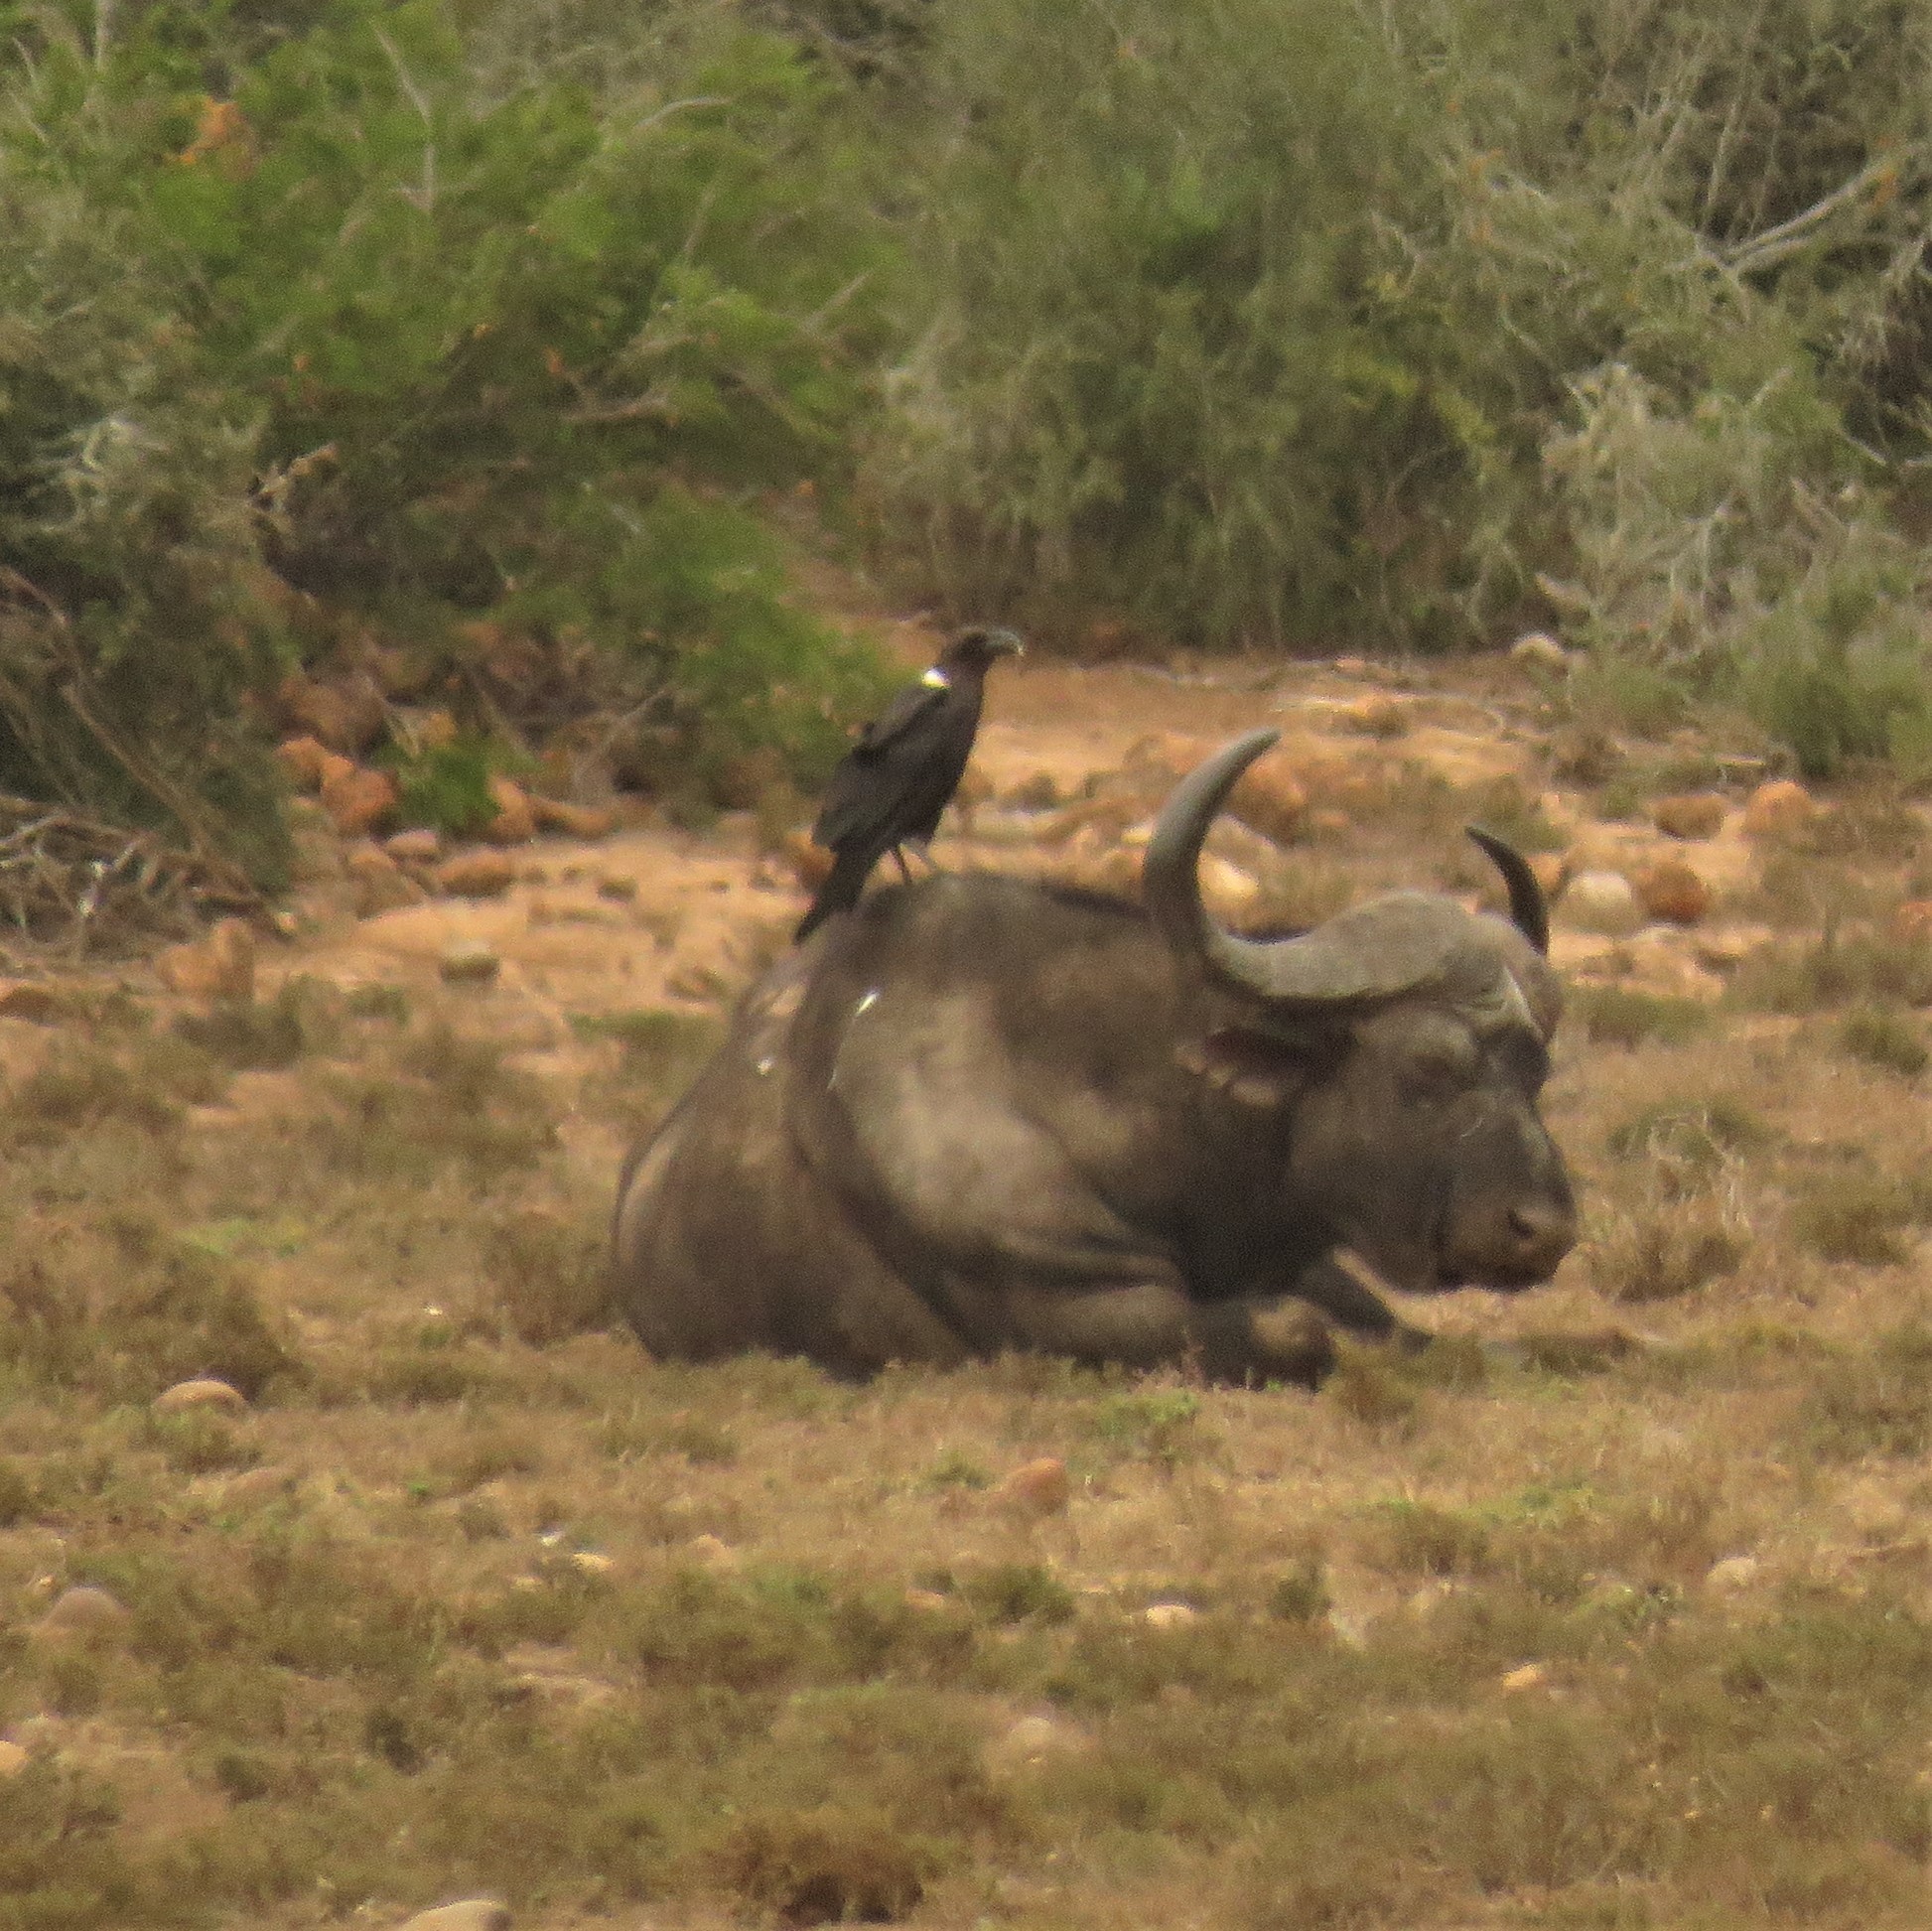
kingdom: Animalia
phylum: Chordata
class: Aves
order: Passeriformes
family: Corvidae
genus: Corvus
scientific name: Corvus albicollis
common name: White-necked raven
